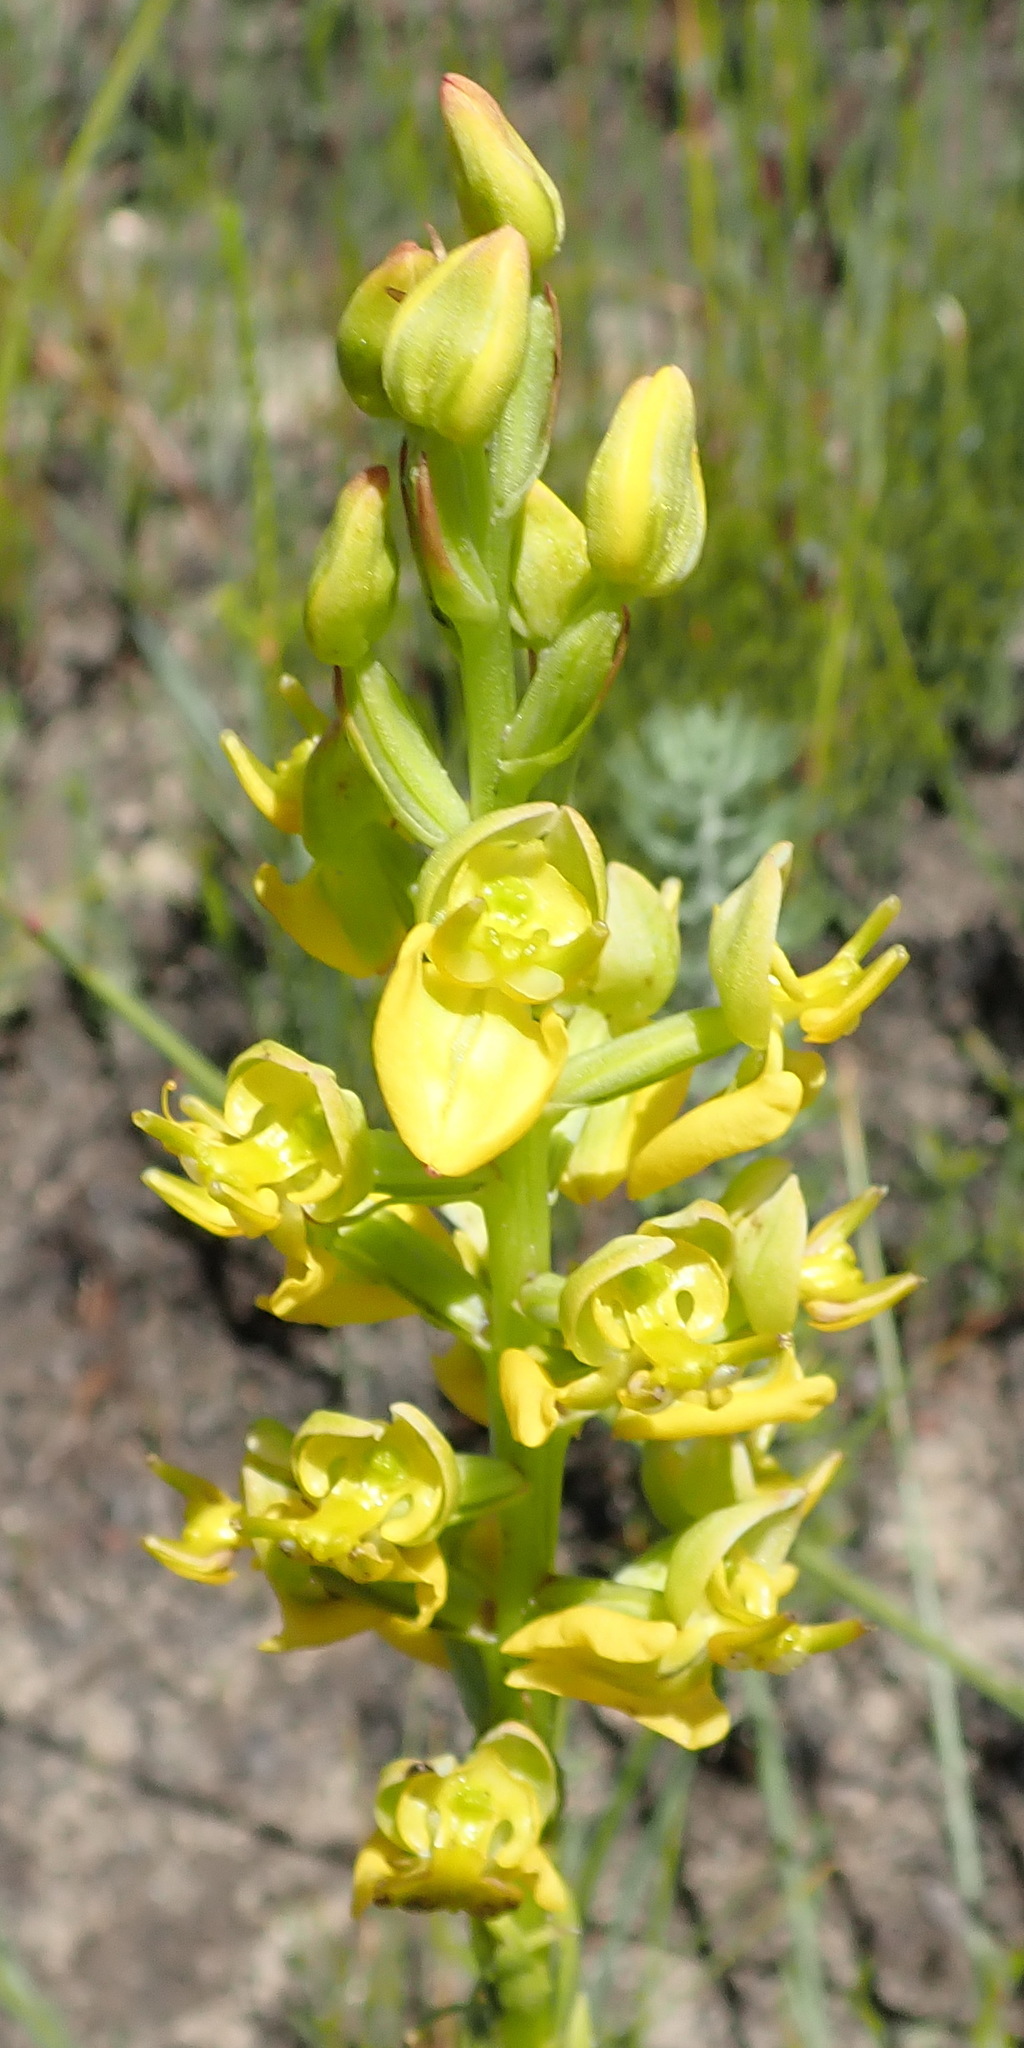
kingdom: Plantae
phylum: Tracheophyta
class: Liliopsida
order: Asparagales
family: Orchidaceae
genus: Ceratandra
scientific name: Ceratandra atrata
